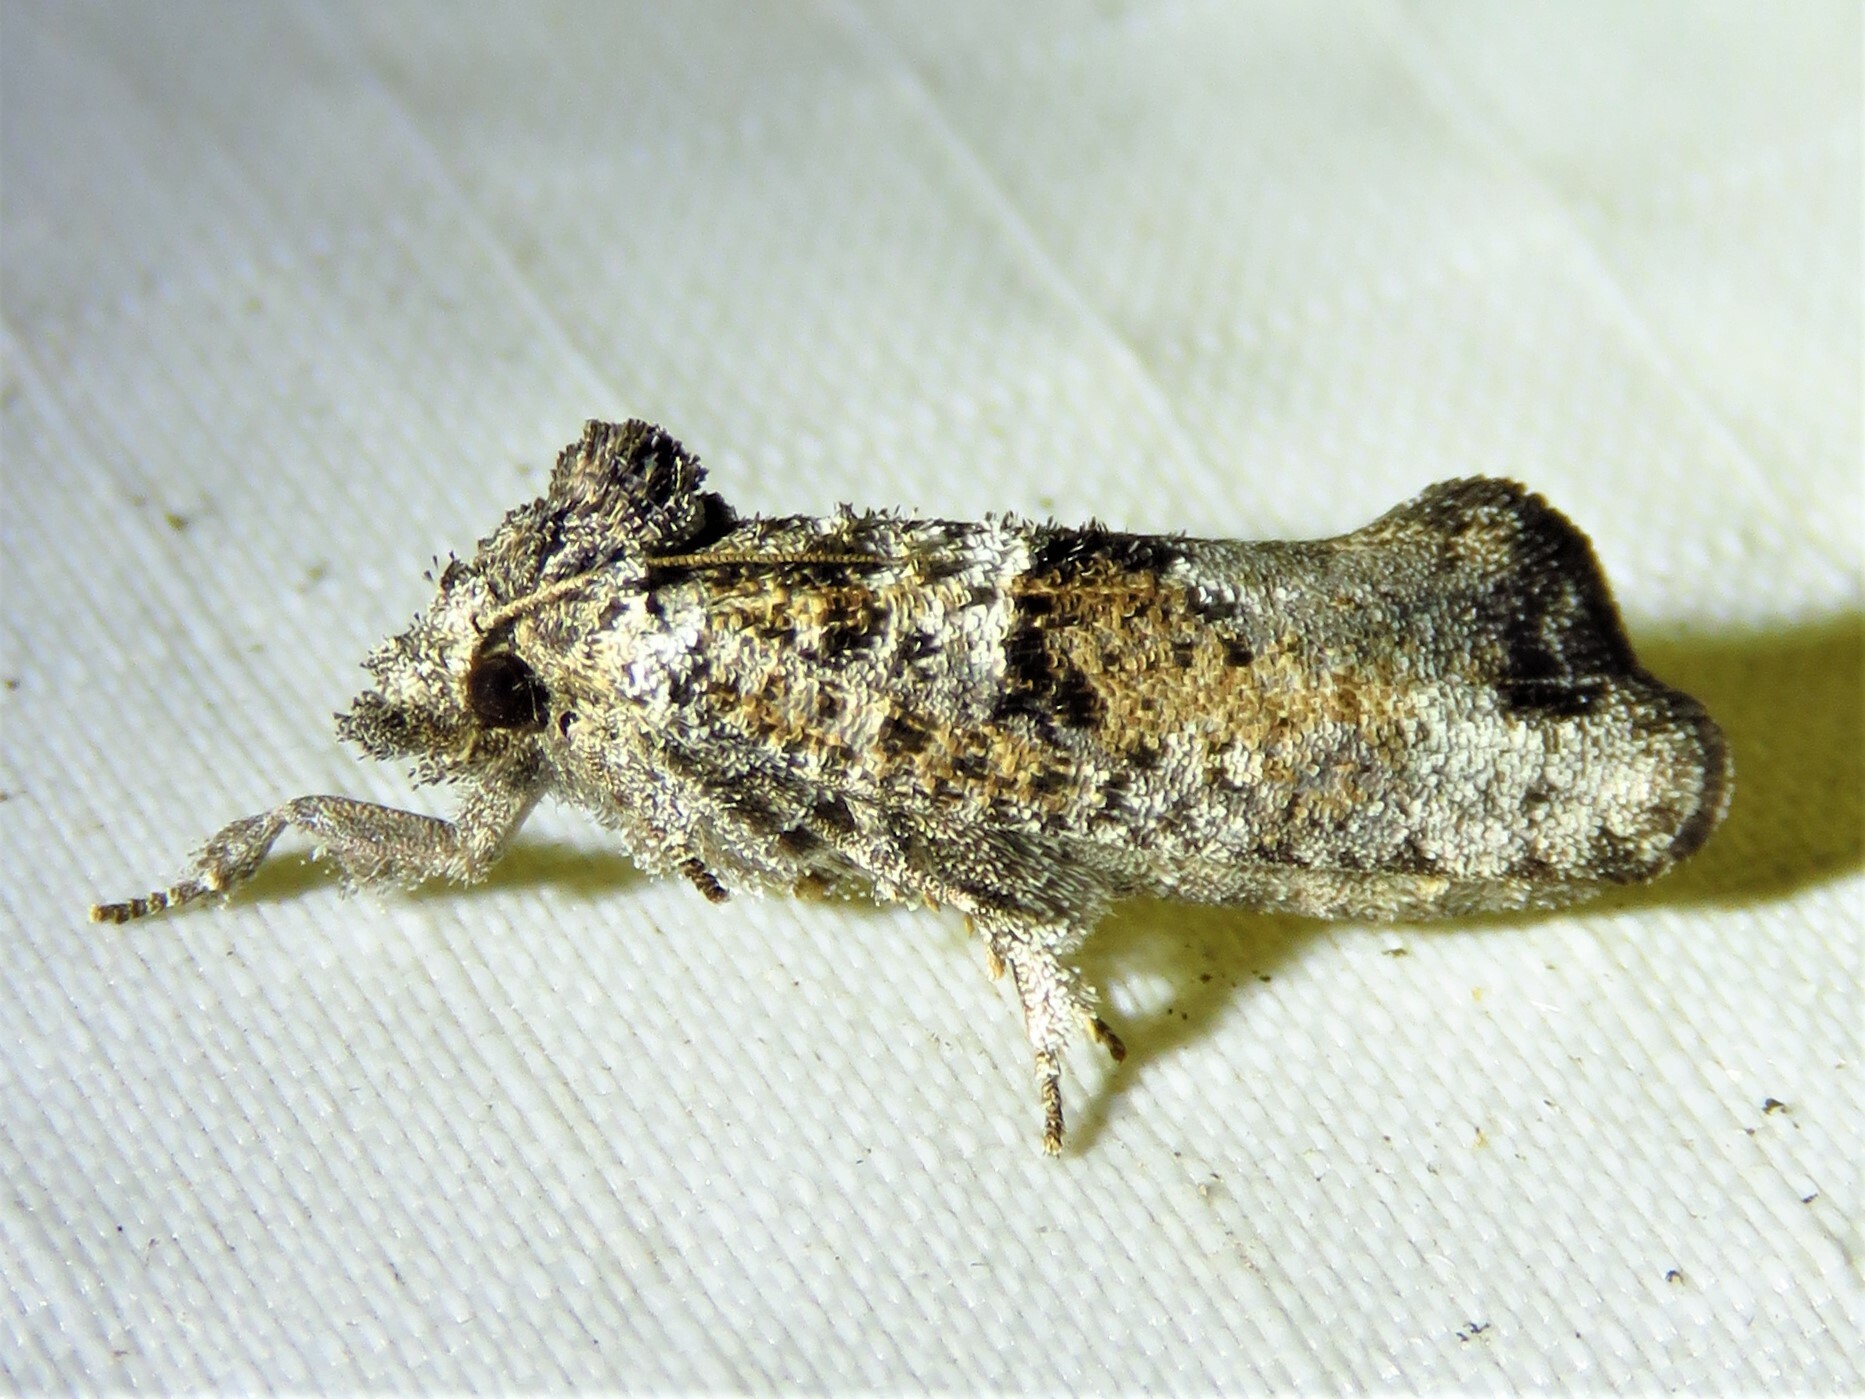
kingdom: Animalia
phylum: Arthropoda
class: Insecta
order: Lepidoptera
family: Tineidae
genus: Acrolophus
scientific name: Acrolophus piger
